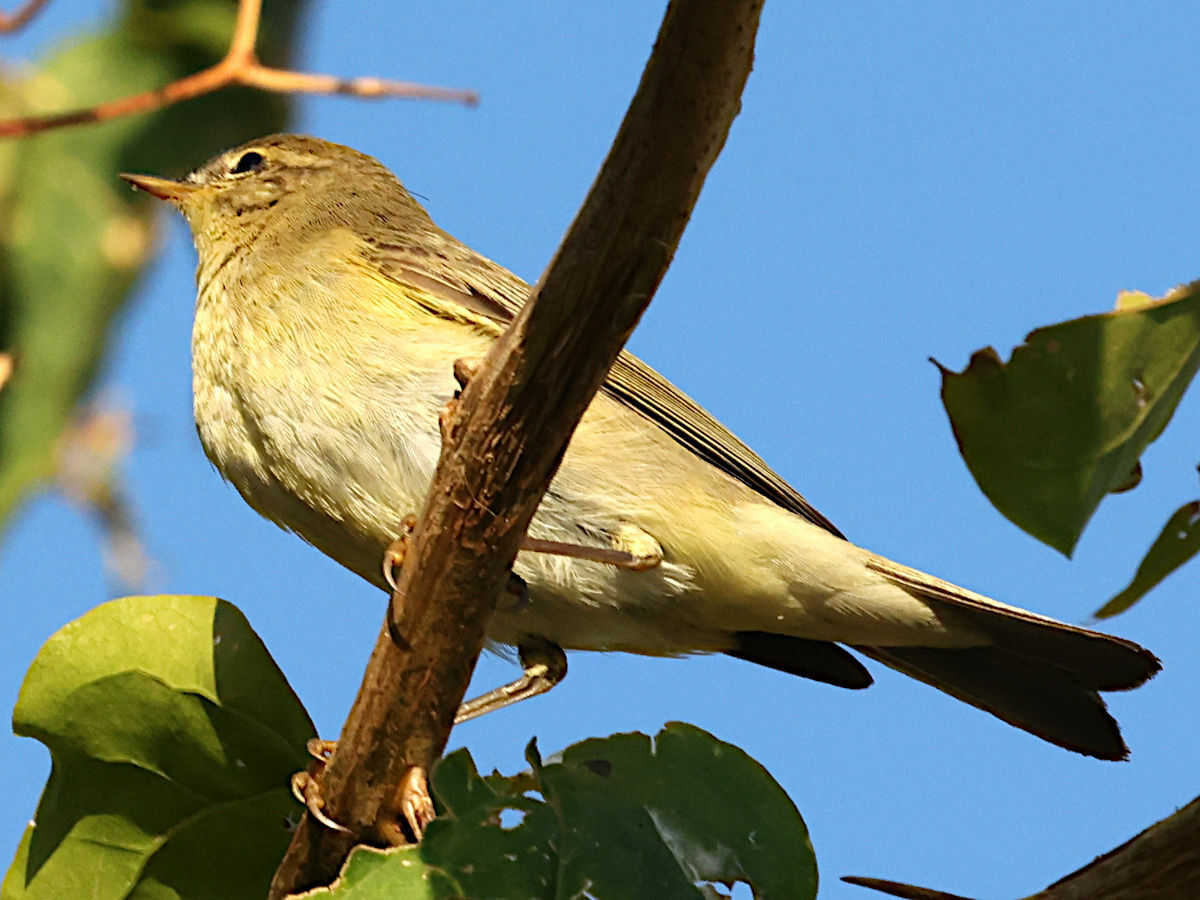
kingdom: Animalia
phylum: Chordata
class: Aves
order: Passeriformes
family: Phylloscopidae
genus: Phylloscopus
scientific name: Phylloscopus trochilus
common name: Willow warbler
